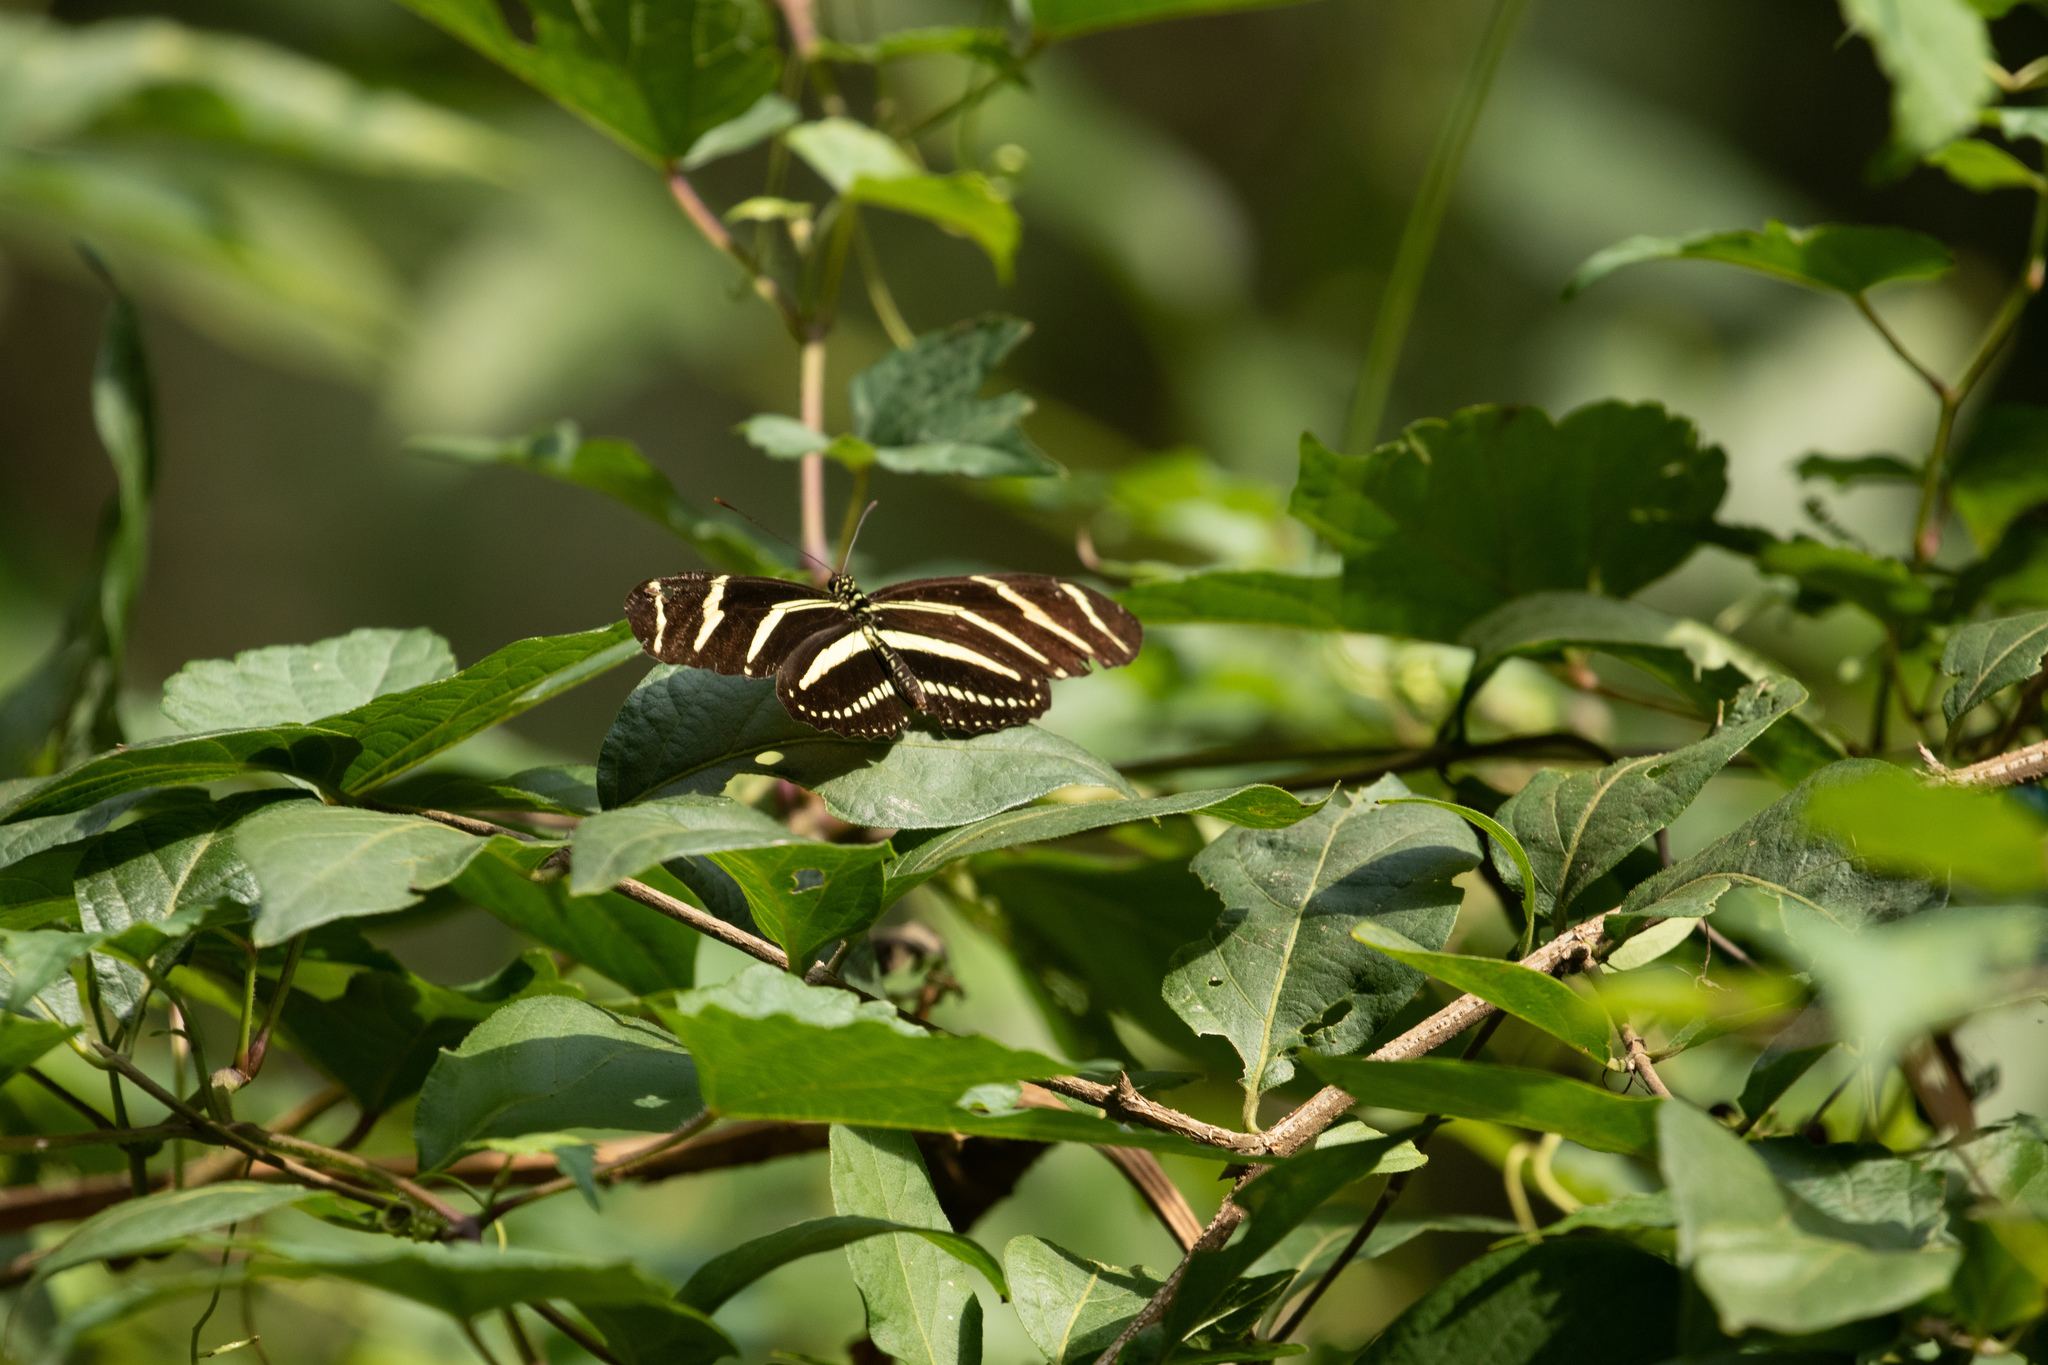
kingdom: Animalia
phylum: Arthropoda
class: Insecta
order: Lepidoptera
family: Nymphalidae
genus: Heliconius
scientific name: Heliconius charithonia
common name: Zebra long wing
